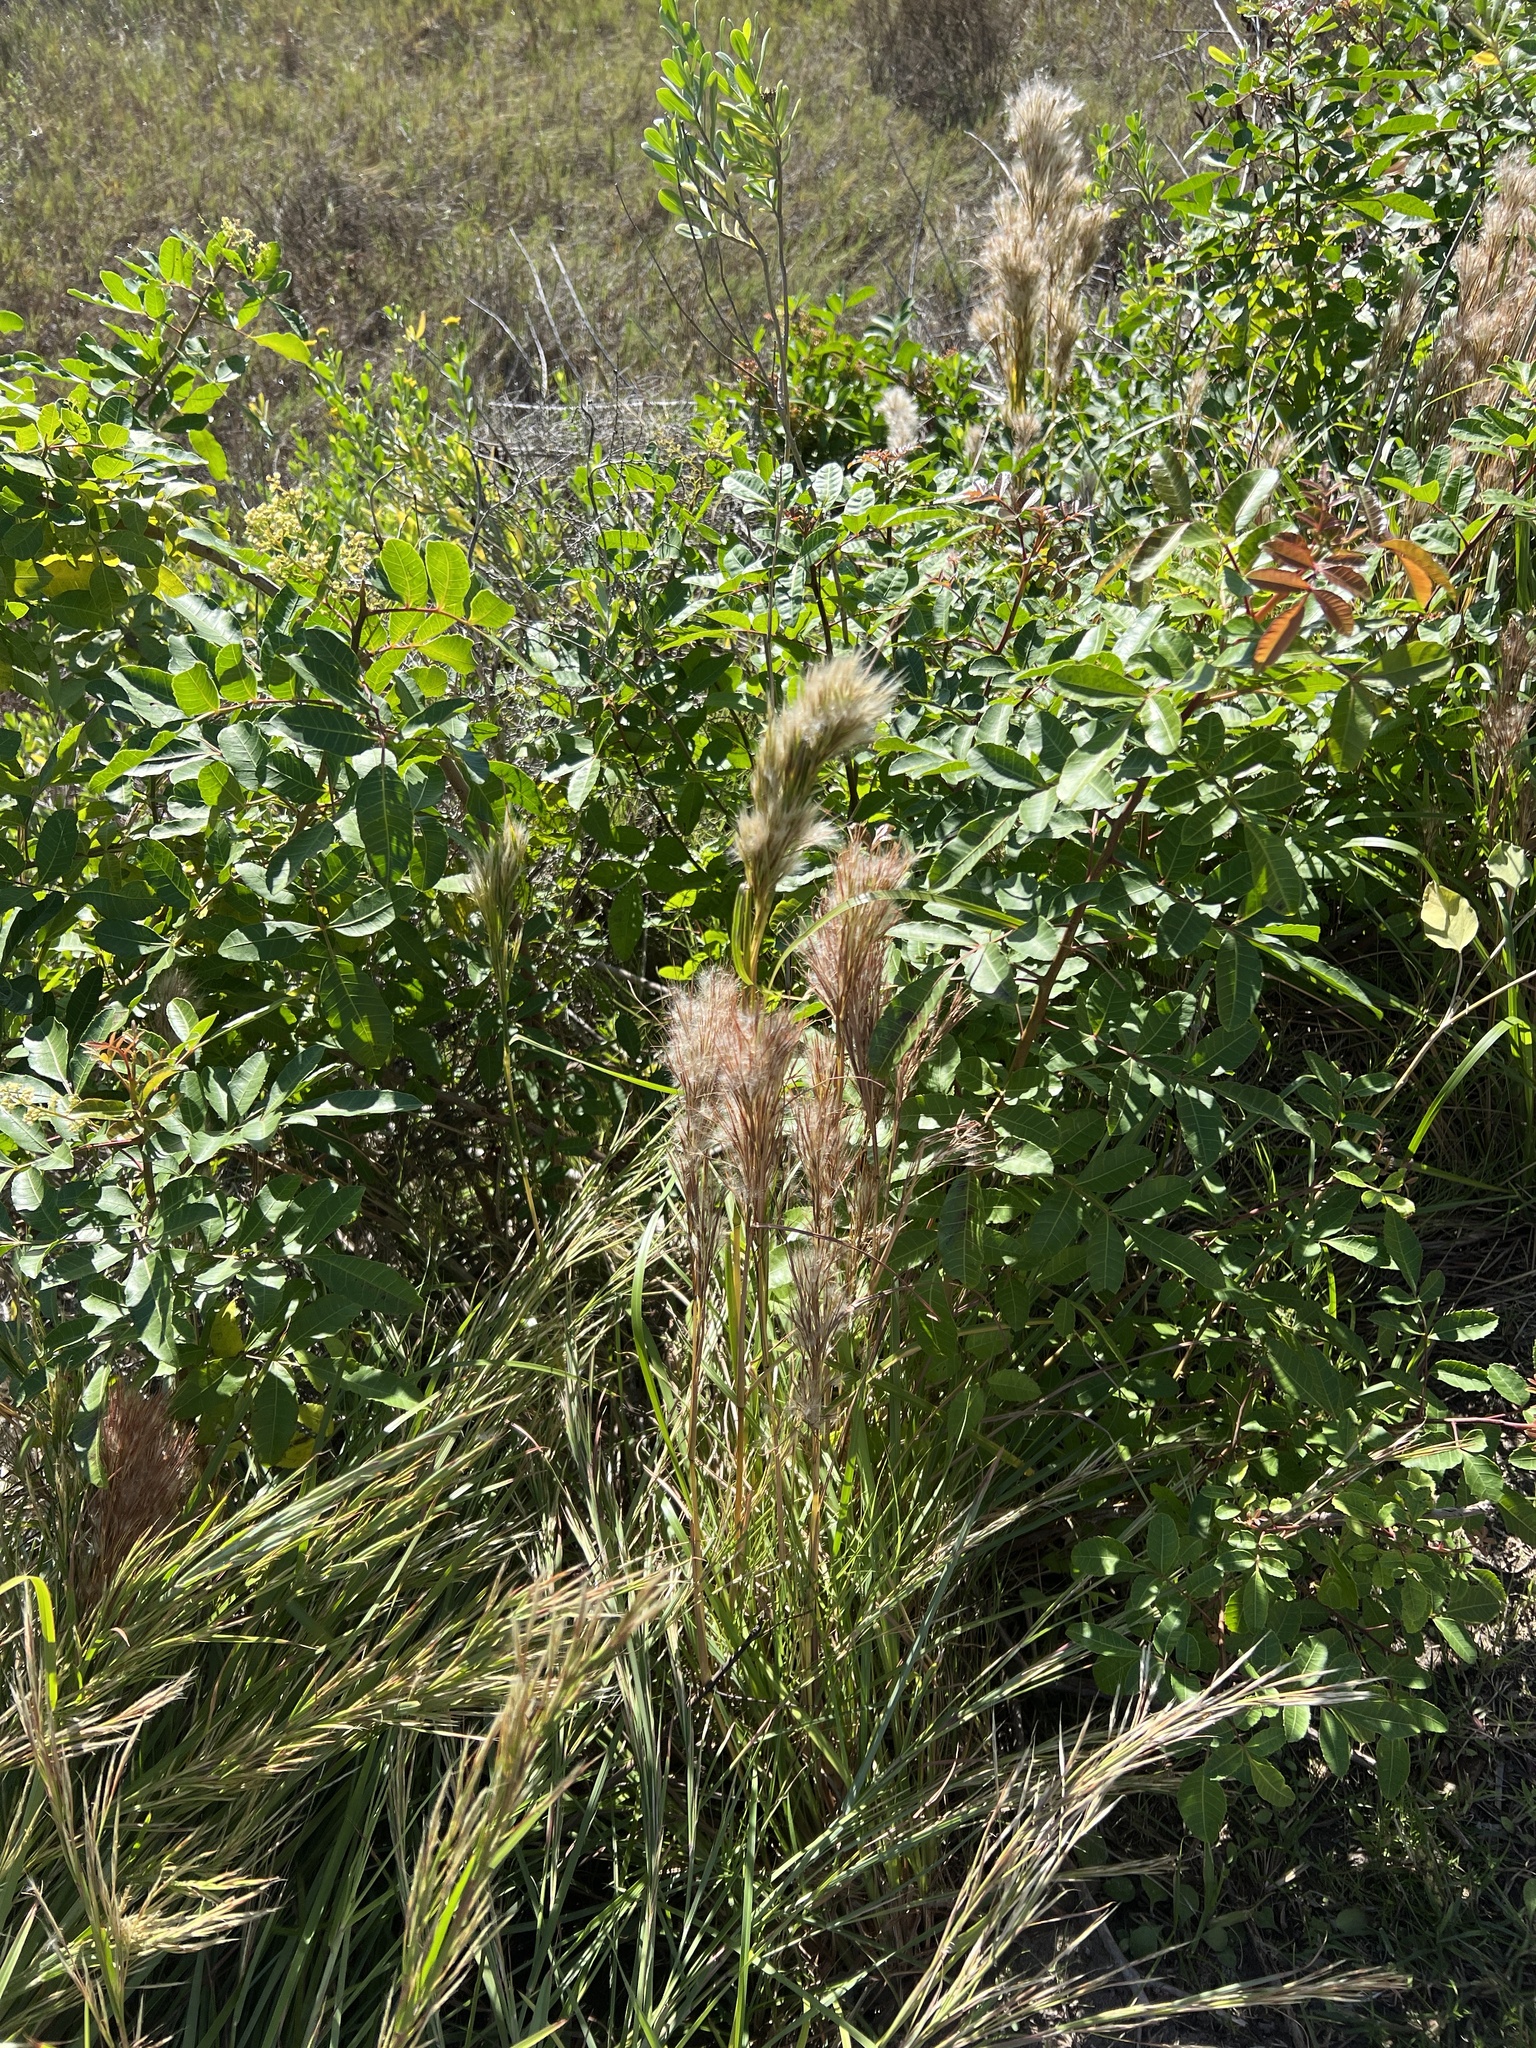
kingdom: Plantae
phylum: Tracheophyta
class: Liliopsida
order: Poales
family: Poaceae
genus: Andropogon
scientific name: Andropogon tenuispatheus
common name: Bushy bluestem
